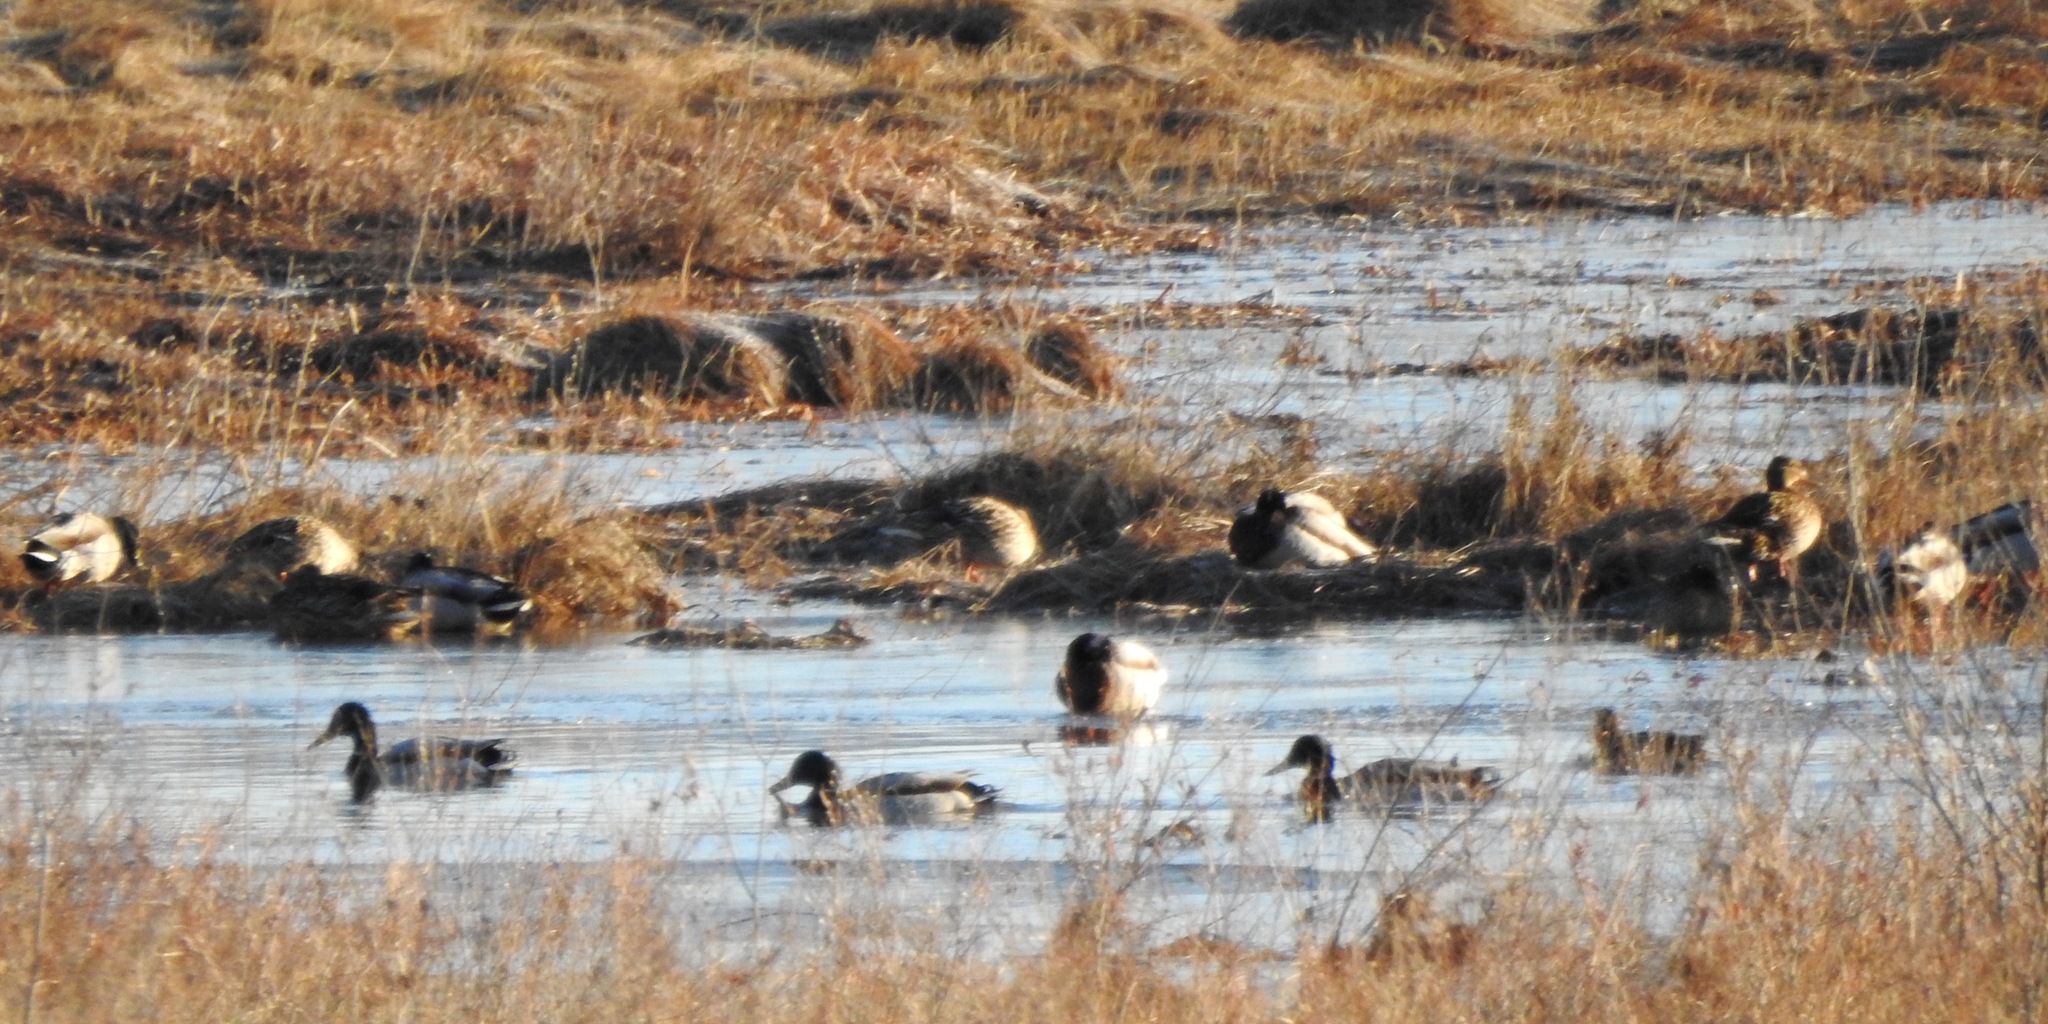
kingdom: Animalia
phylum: Chordata
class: Aves
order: Anseriformes
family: Anatidae
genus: Anas
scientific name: Anas platyrhynchos
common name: Mallard
